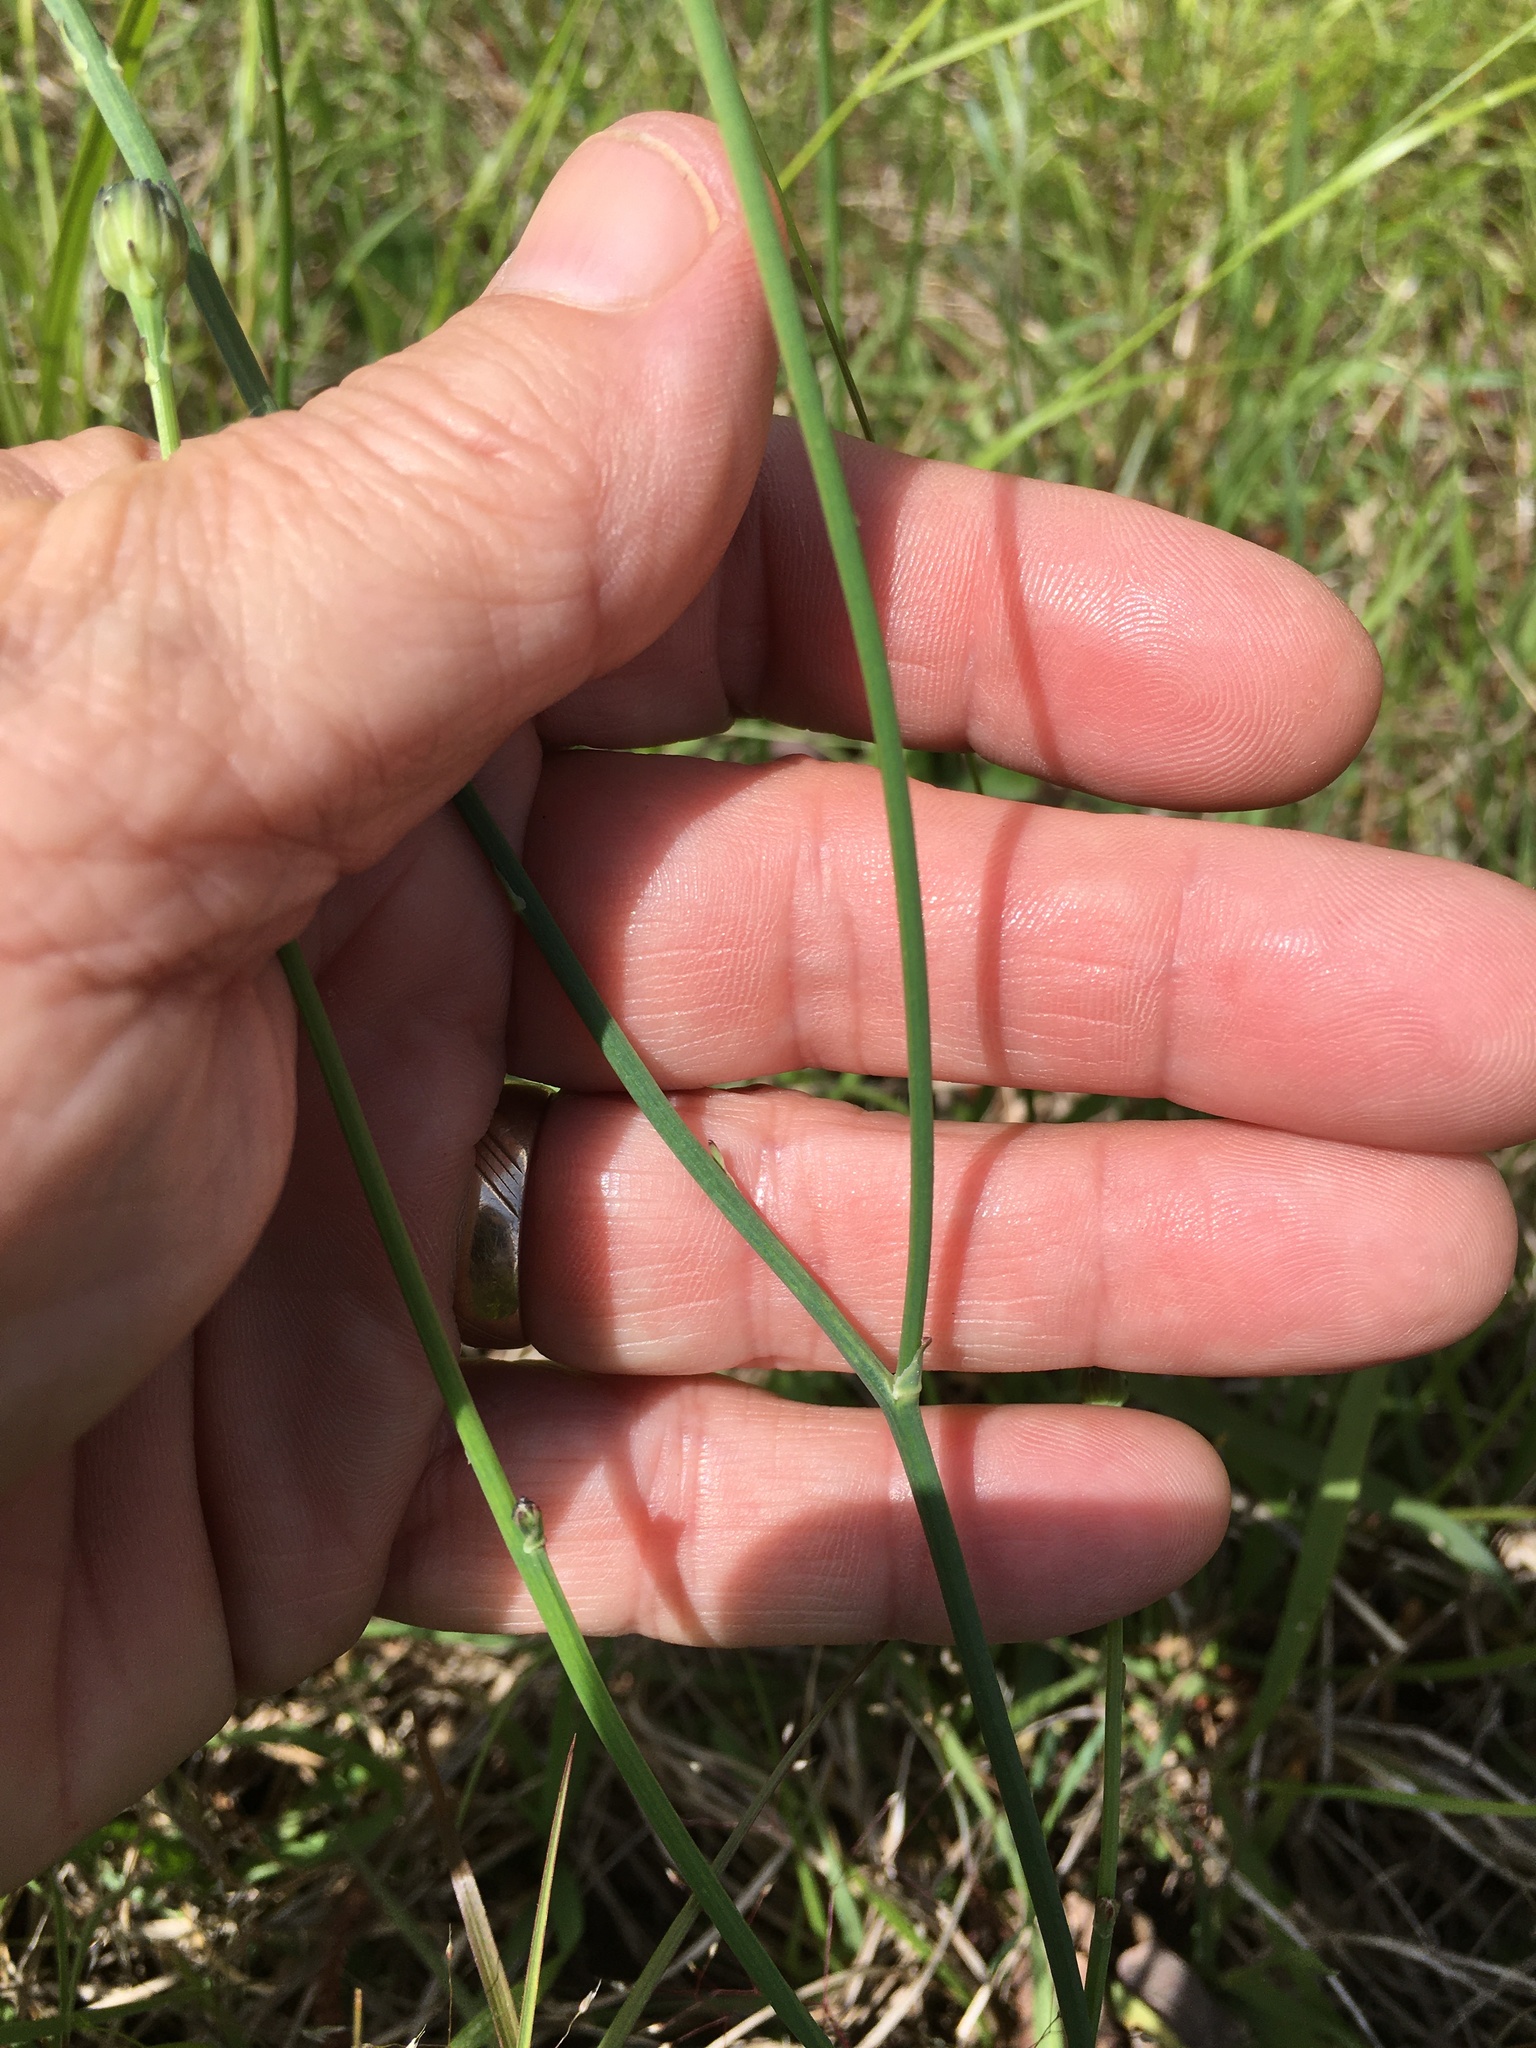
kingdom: Plantae
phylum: Tracheophyta
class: Magnoliopsida
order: Asterales
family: Asteraceae
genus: Hypochaeris
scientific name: Hypochaeris radicata
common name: Flatweed
